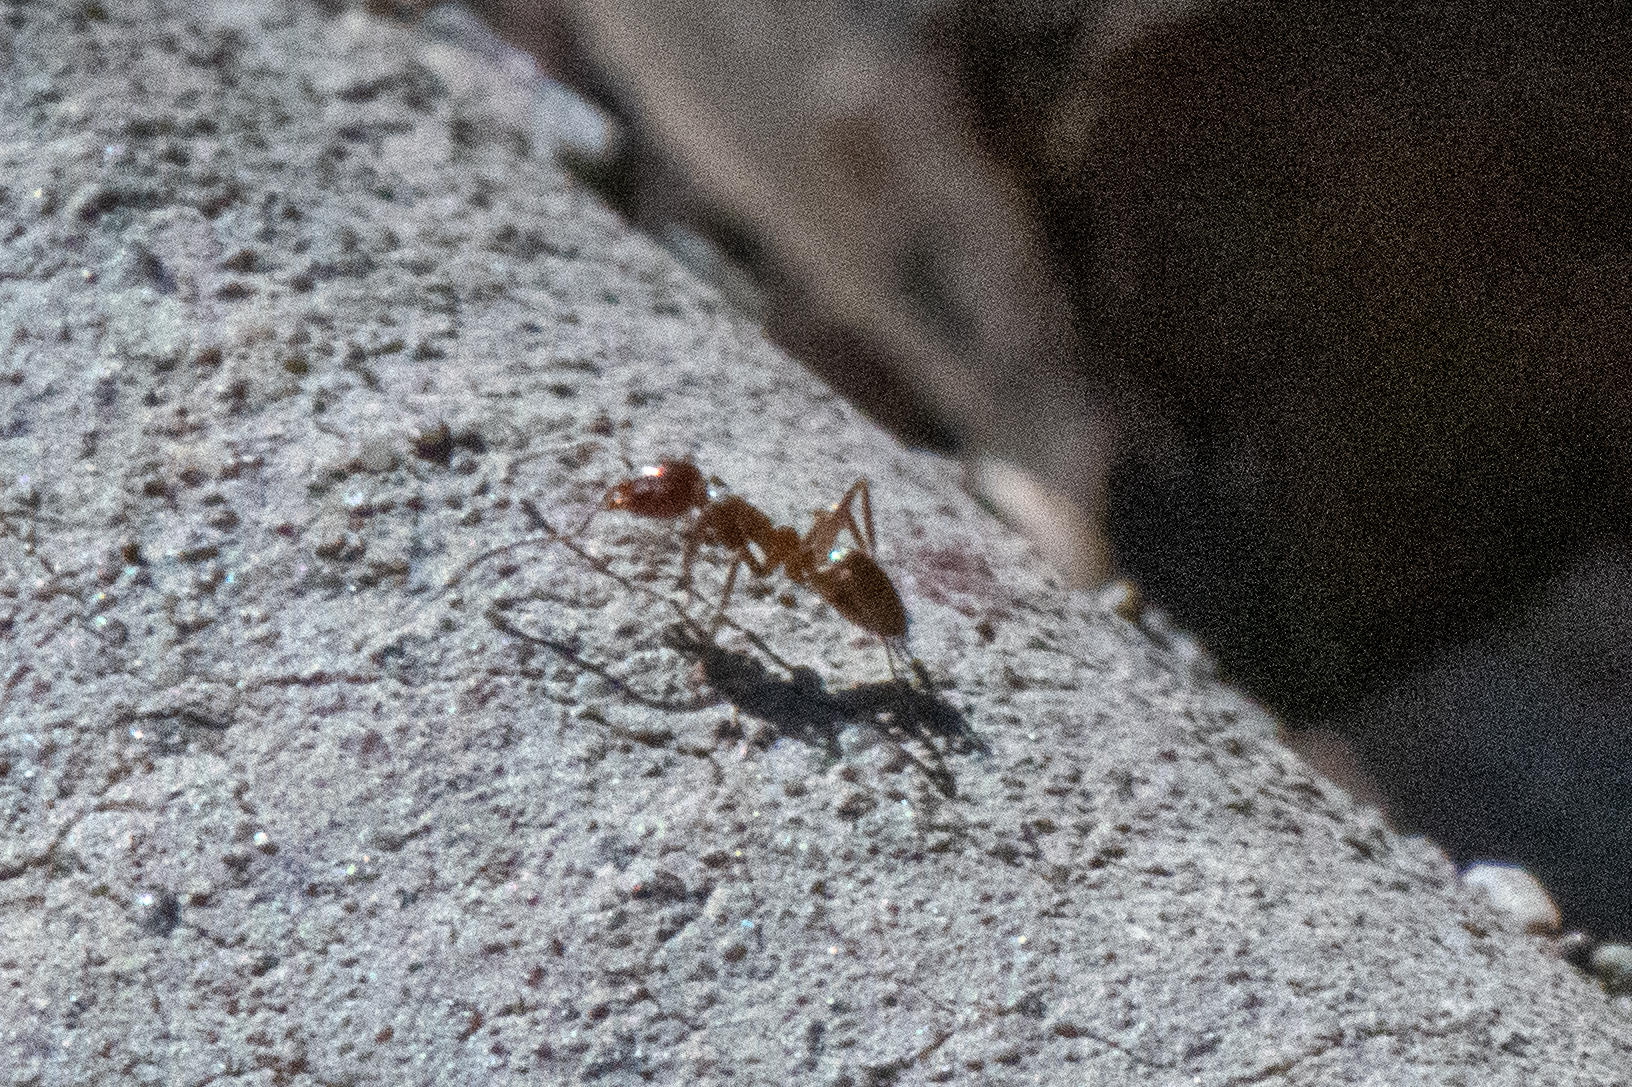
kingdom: Animalia
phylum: Arthropoda
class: Insecta
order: Hymenoptera
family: Formicidae
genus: Linepithema
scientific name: Linepithema humile
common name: Argentine ant
